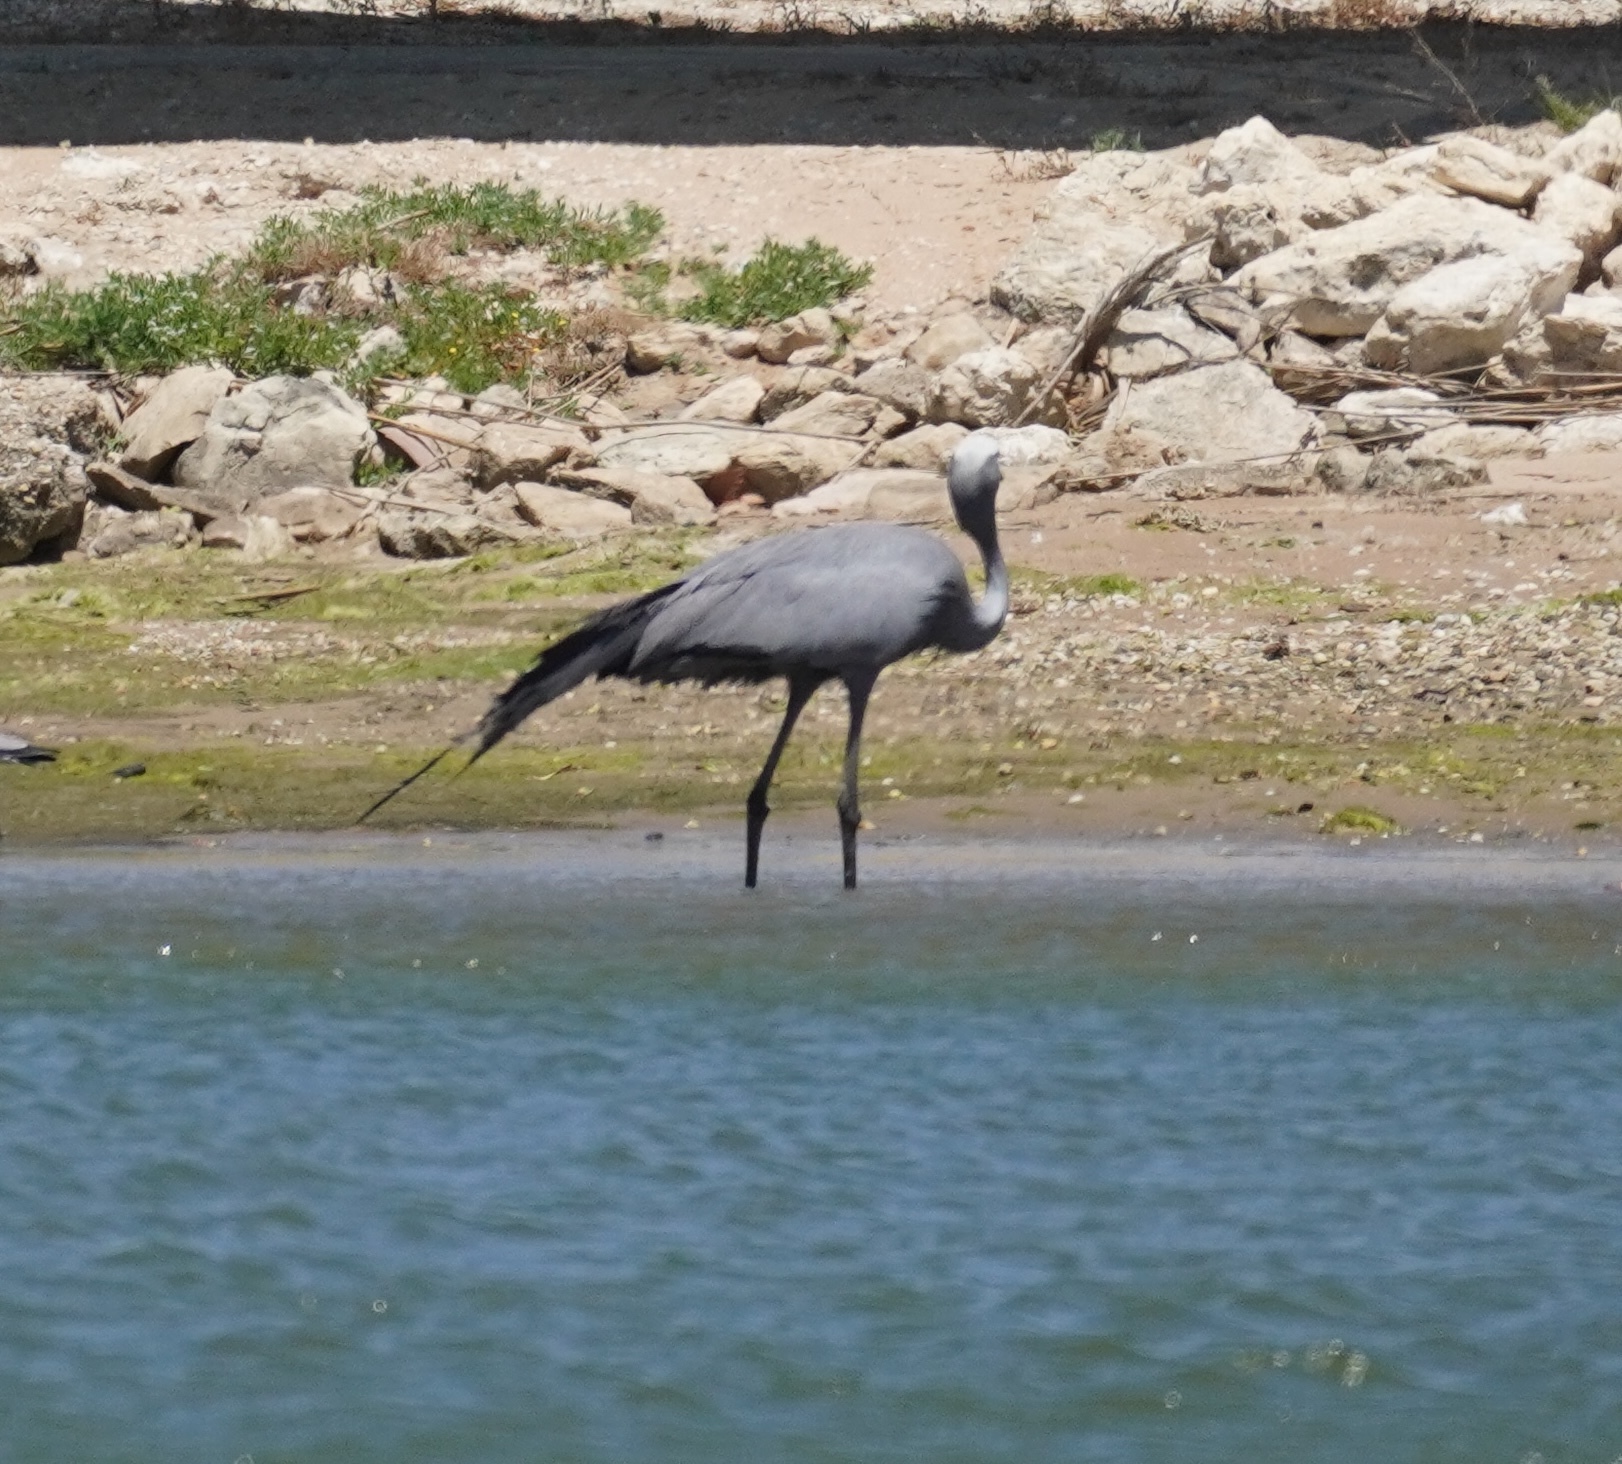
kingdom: Animalia
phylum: Chordata
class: Aves
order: Gruiformes
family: Gruidae
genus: Anthropoides
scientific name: Anthropoides paradiseus
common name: Blue crane
